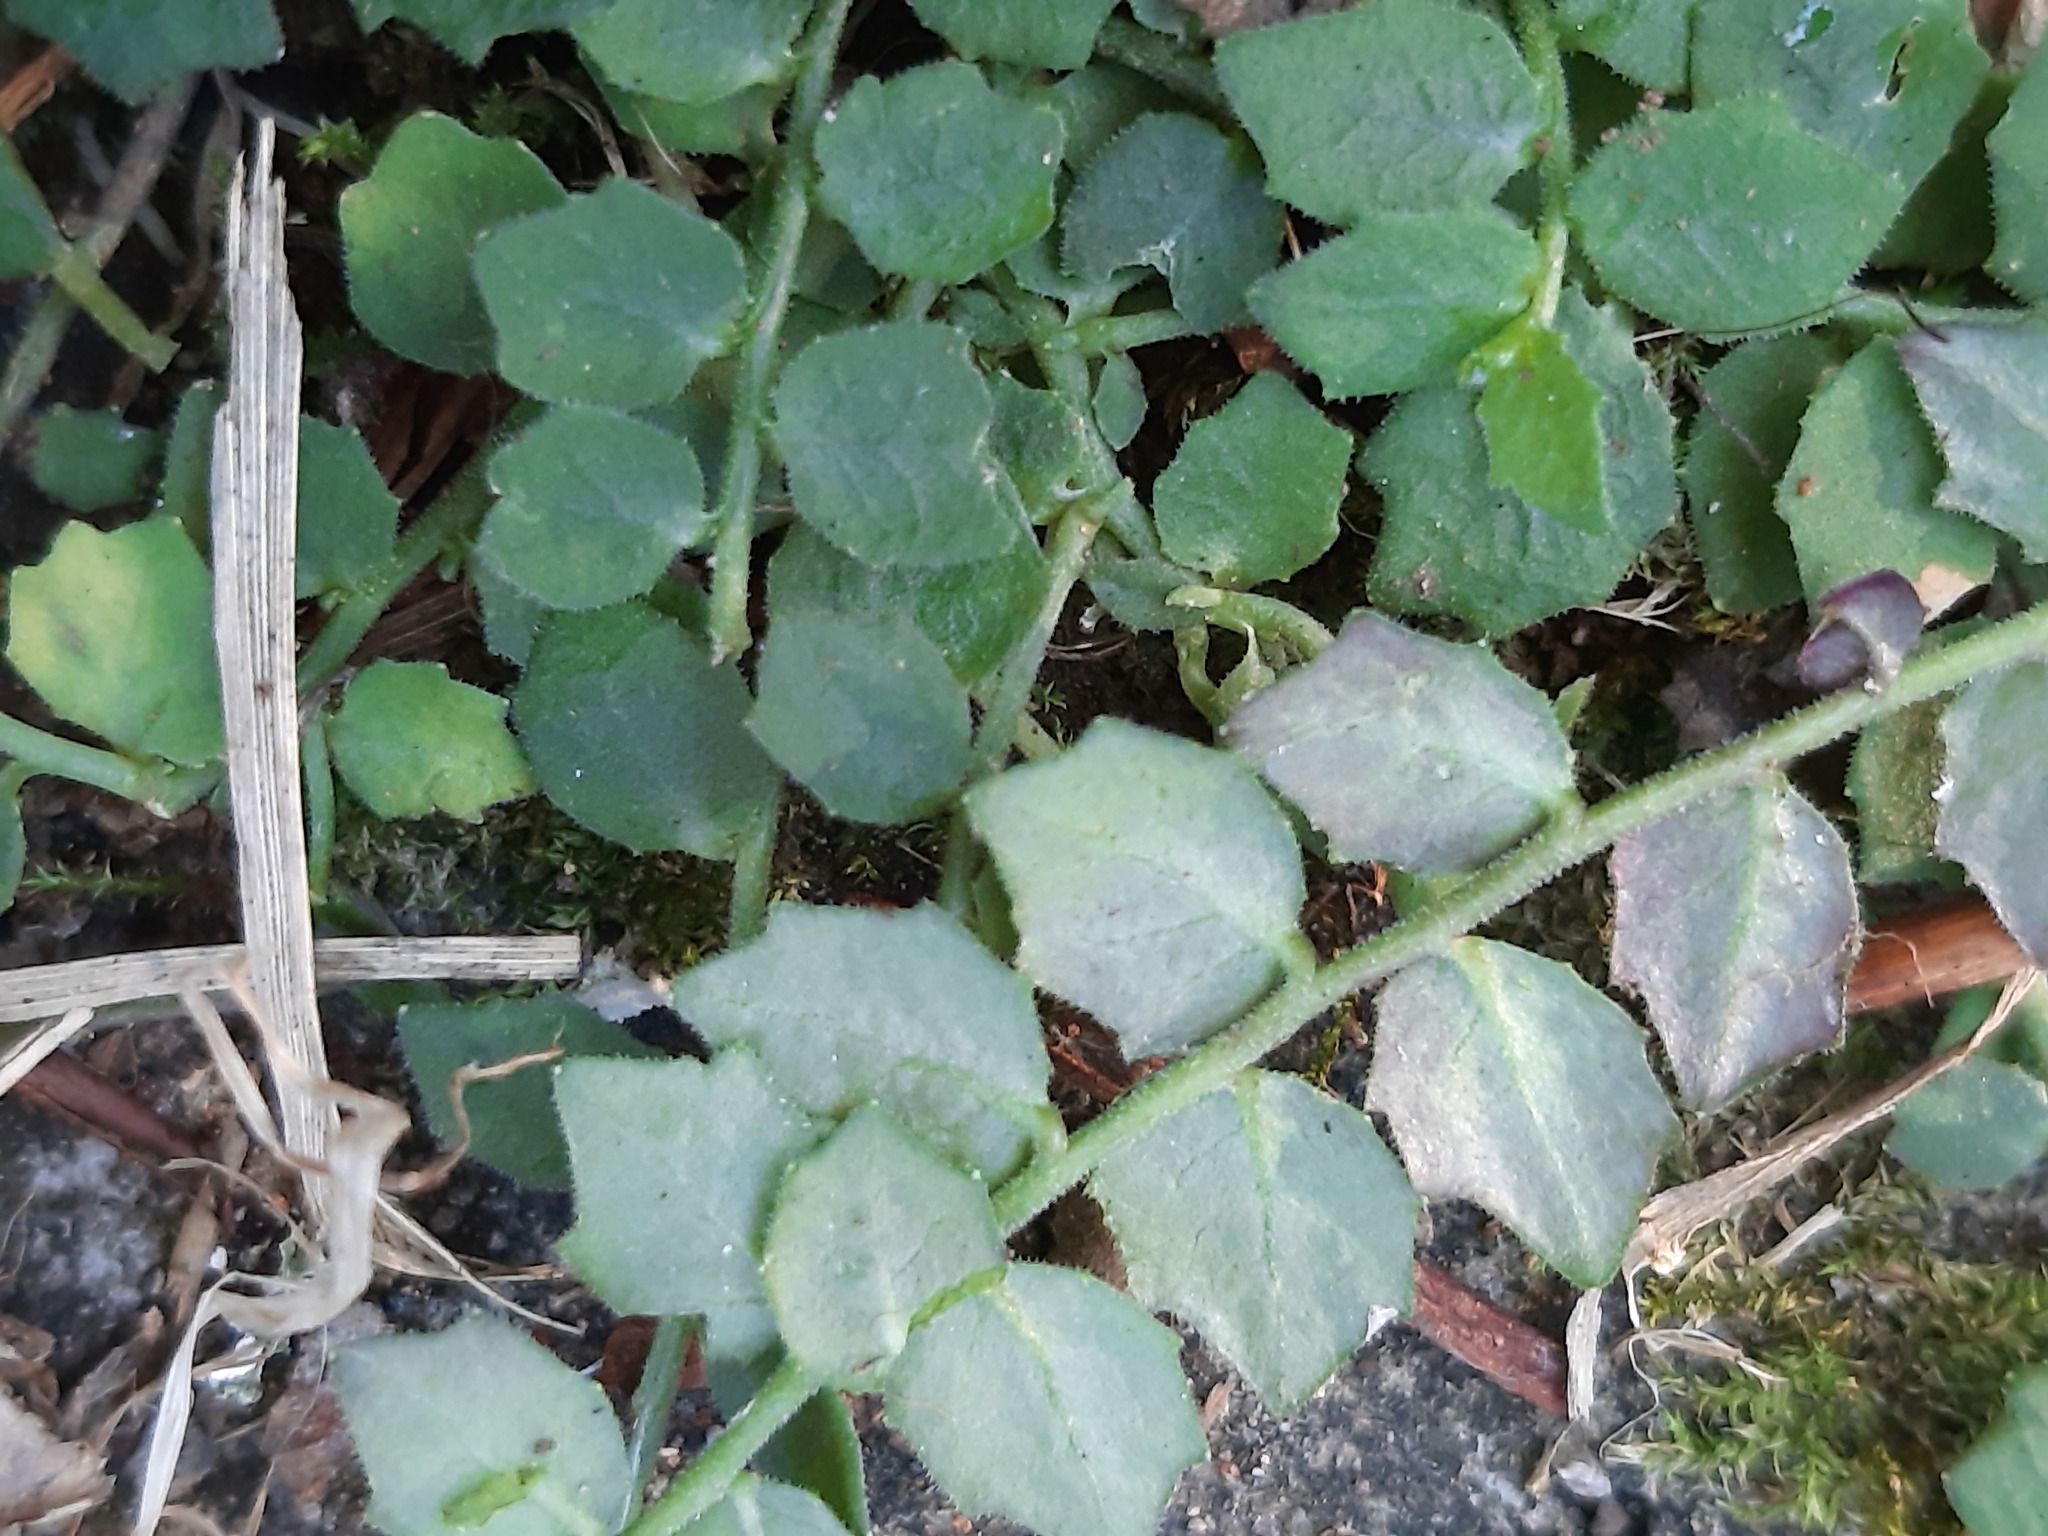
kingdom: Plantae
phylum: Tracheophyta
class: Magnoliopsida
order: Asterales
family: Campanulaceae
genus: Lobelia
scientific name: Lobelia pedunculata
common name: Matted pratia
